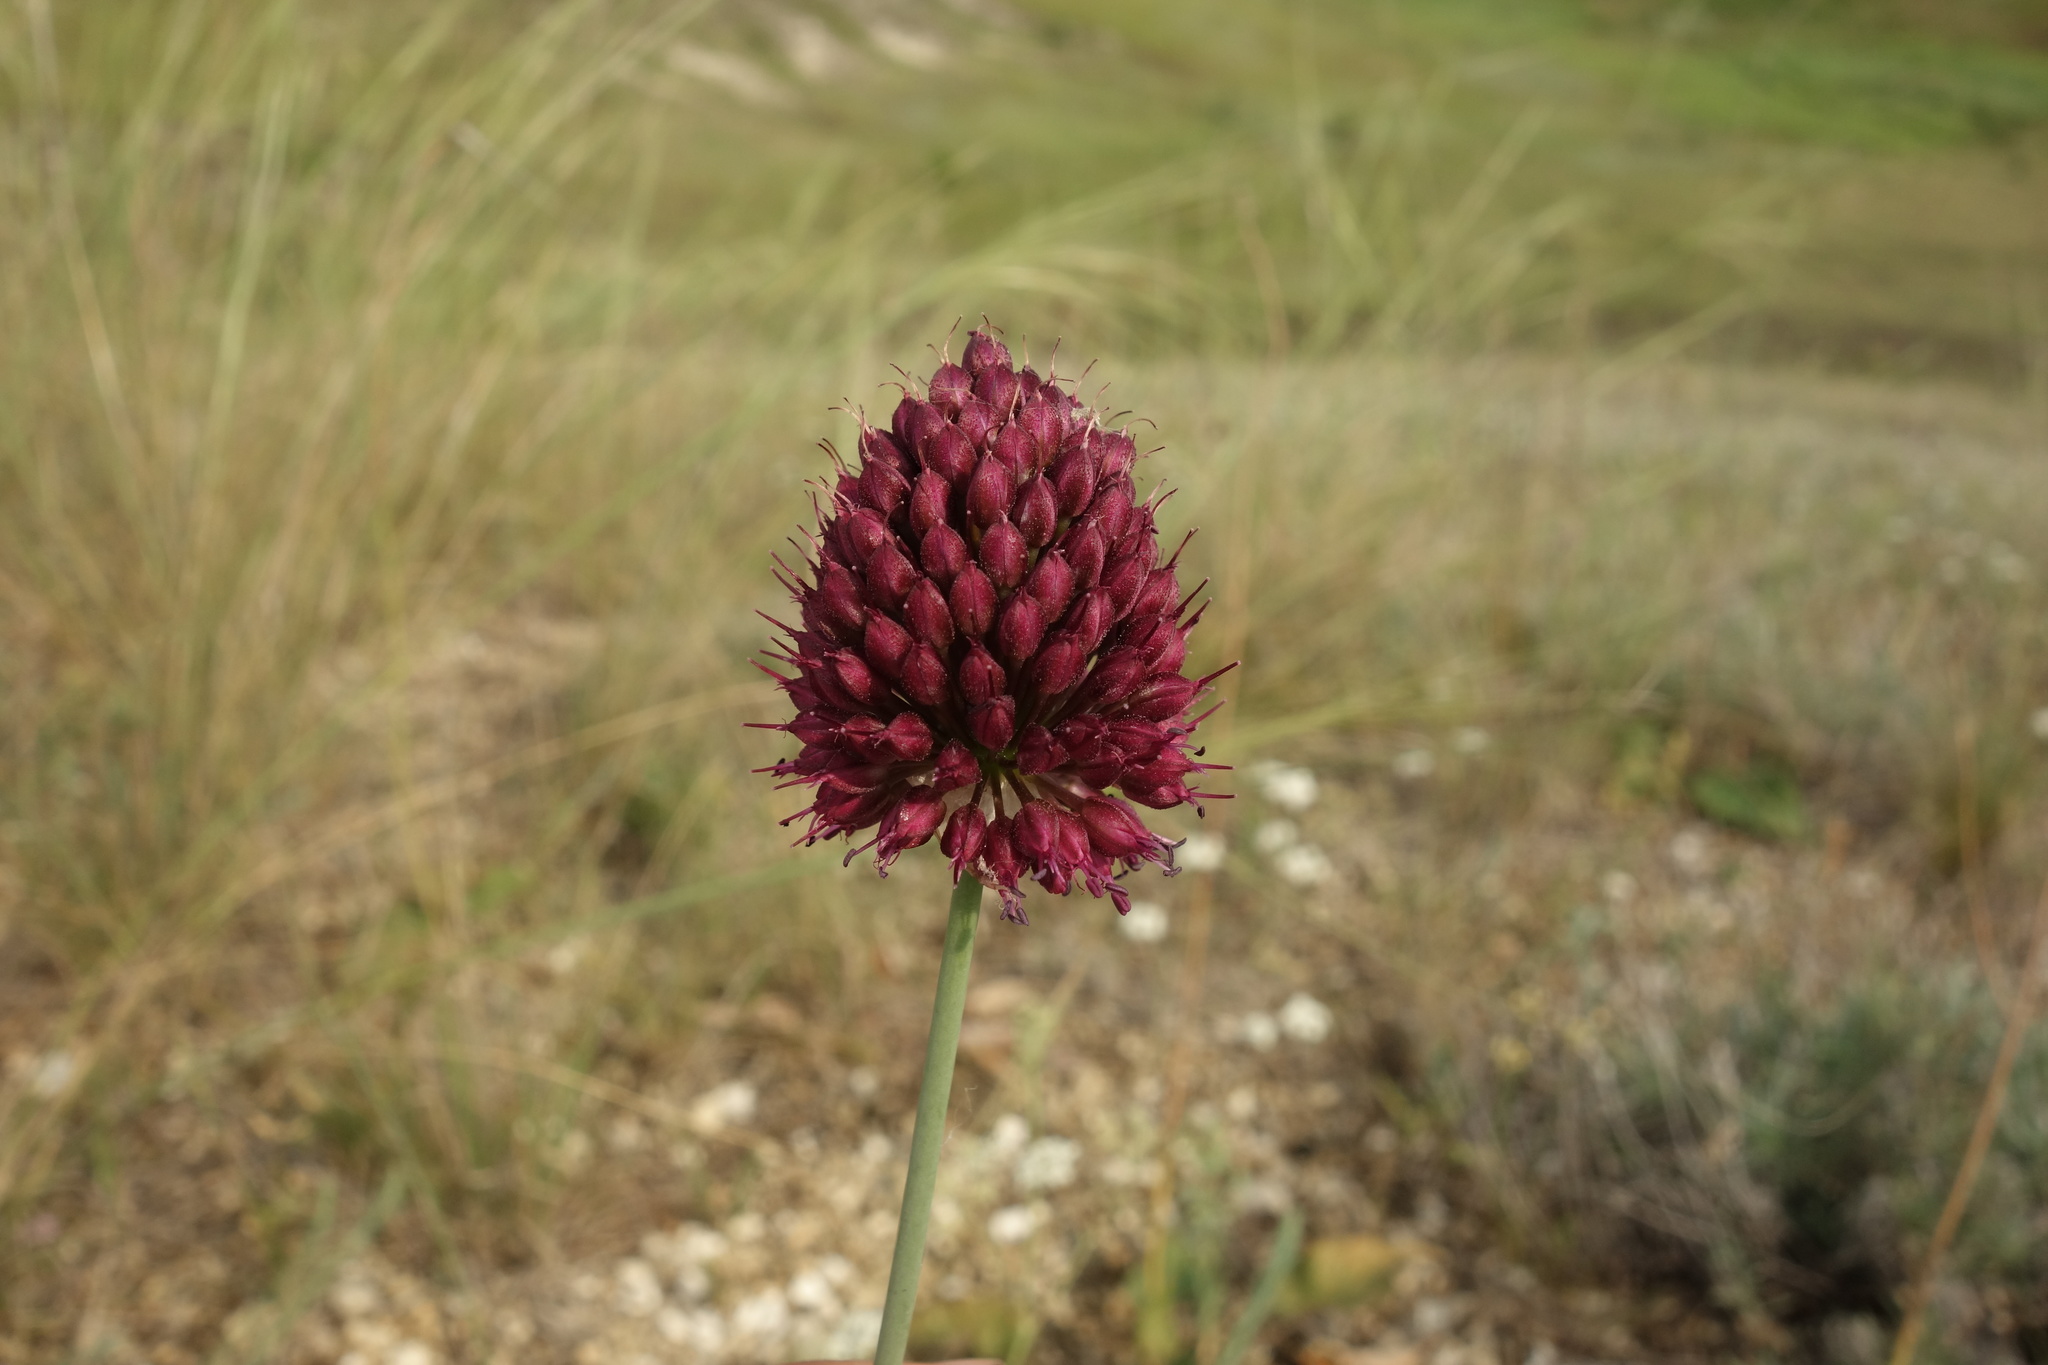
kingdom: Plantae
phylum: Tracheophyta
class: Liliopsida
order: Asparagales
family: Amaryllidaceae
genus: Allium
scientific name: Allium sphaerocephalon
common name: Round-headed leek
